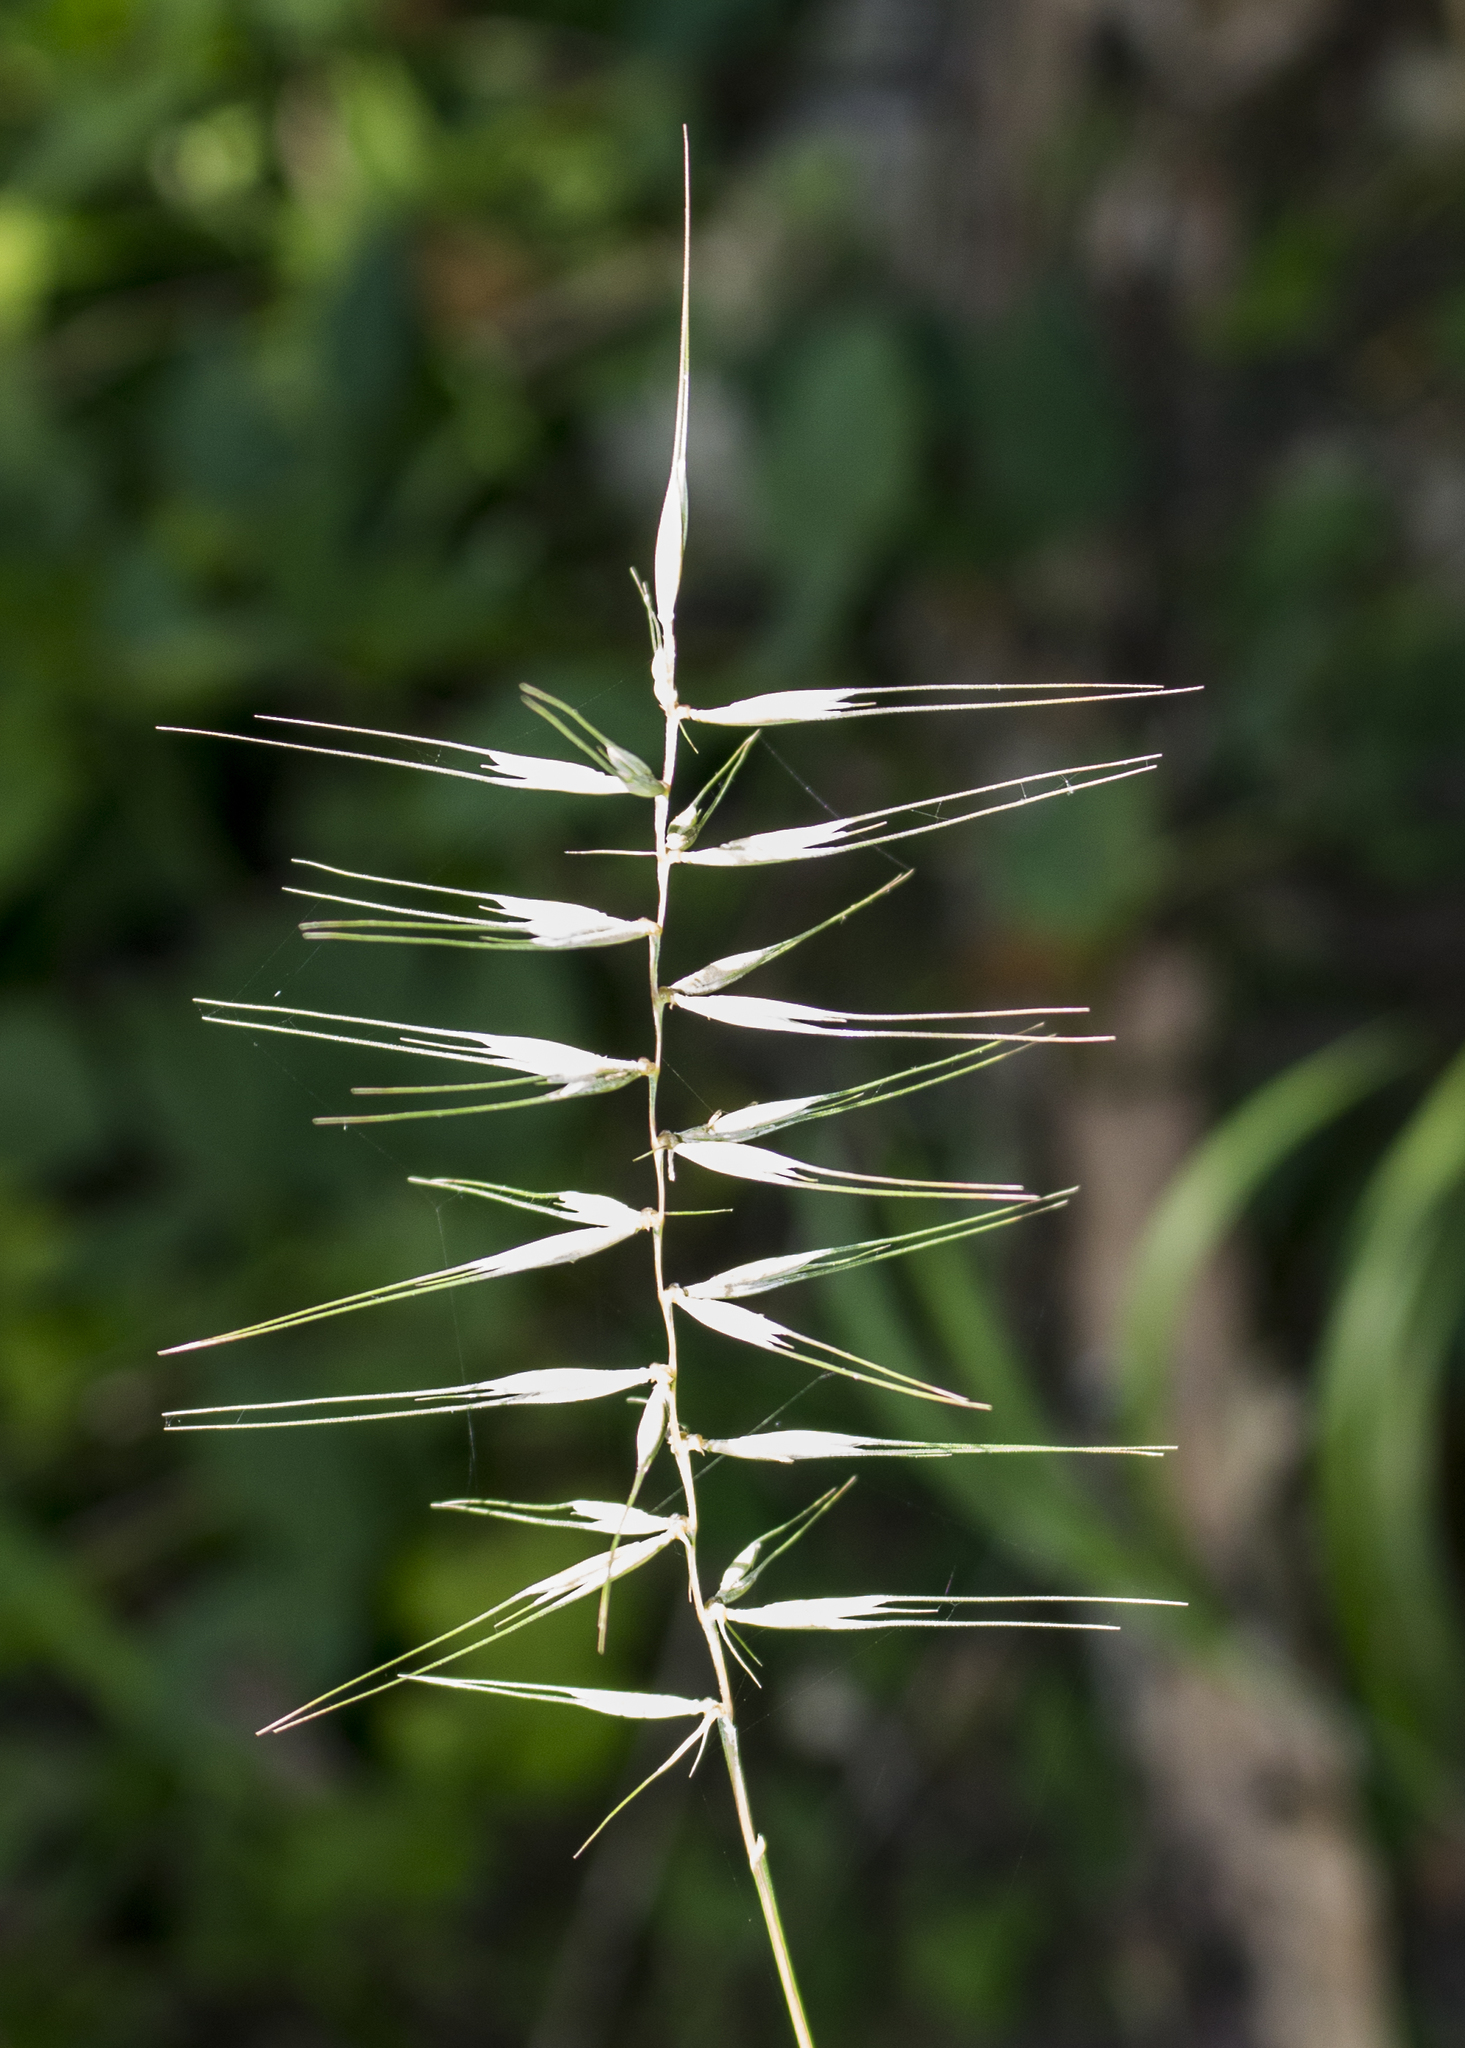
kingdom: Plantae
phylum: Tracheophyta
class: Liliopsida
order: Poales
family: Poaceae
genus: Elymus
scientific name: Elymus hystrix
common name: Bottlebrush grass
